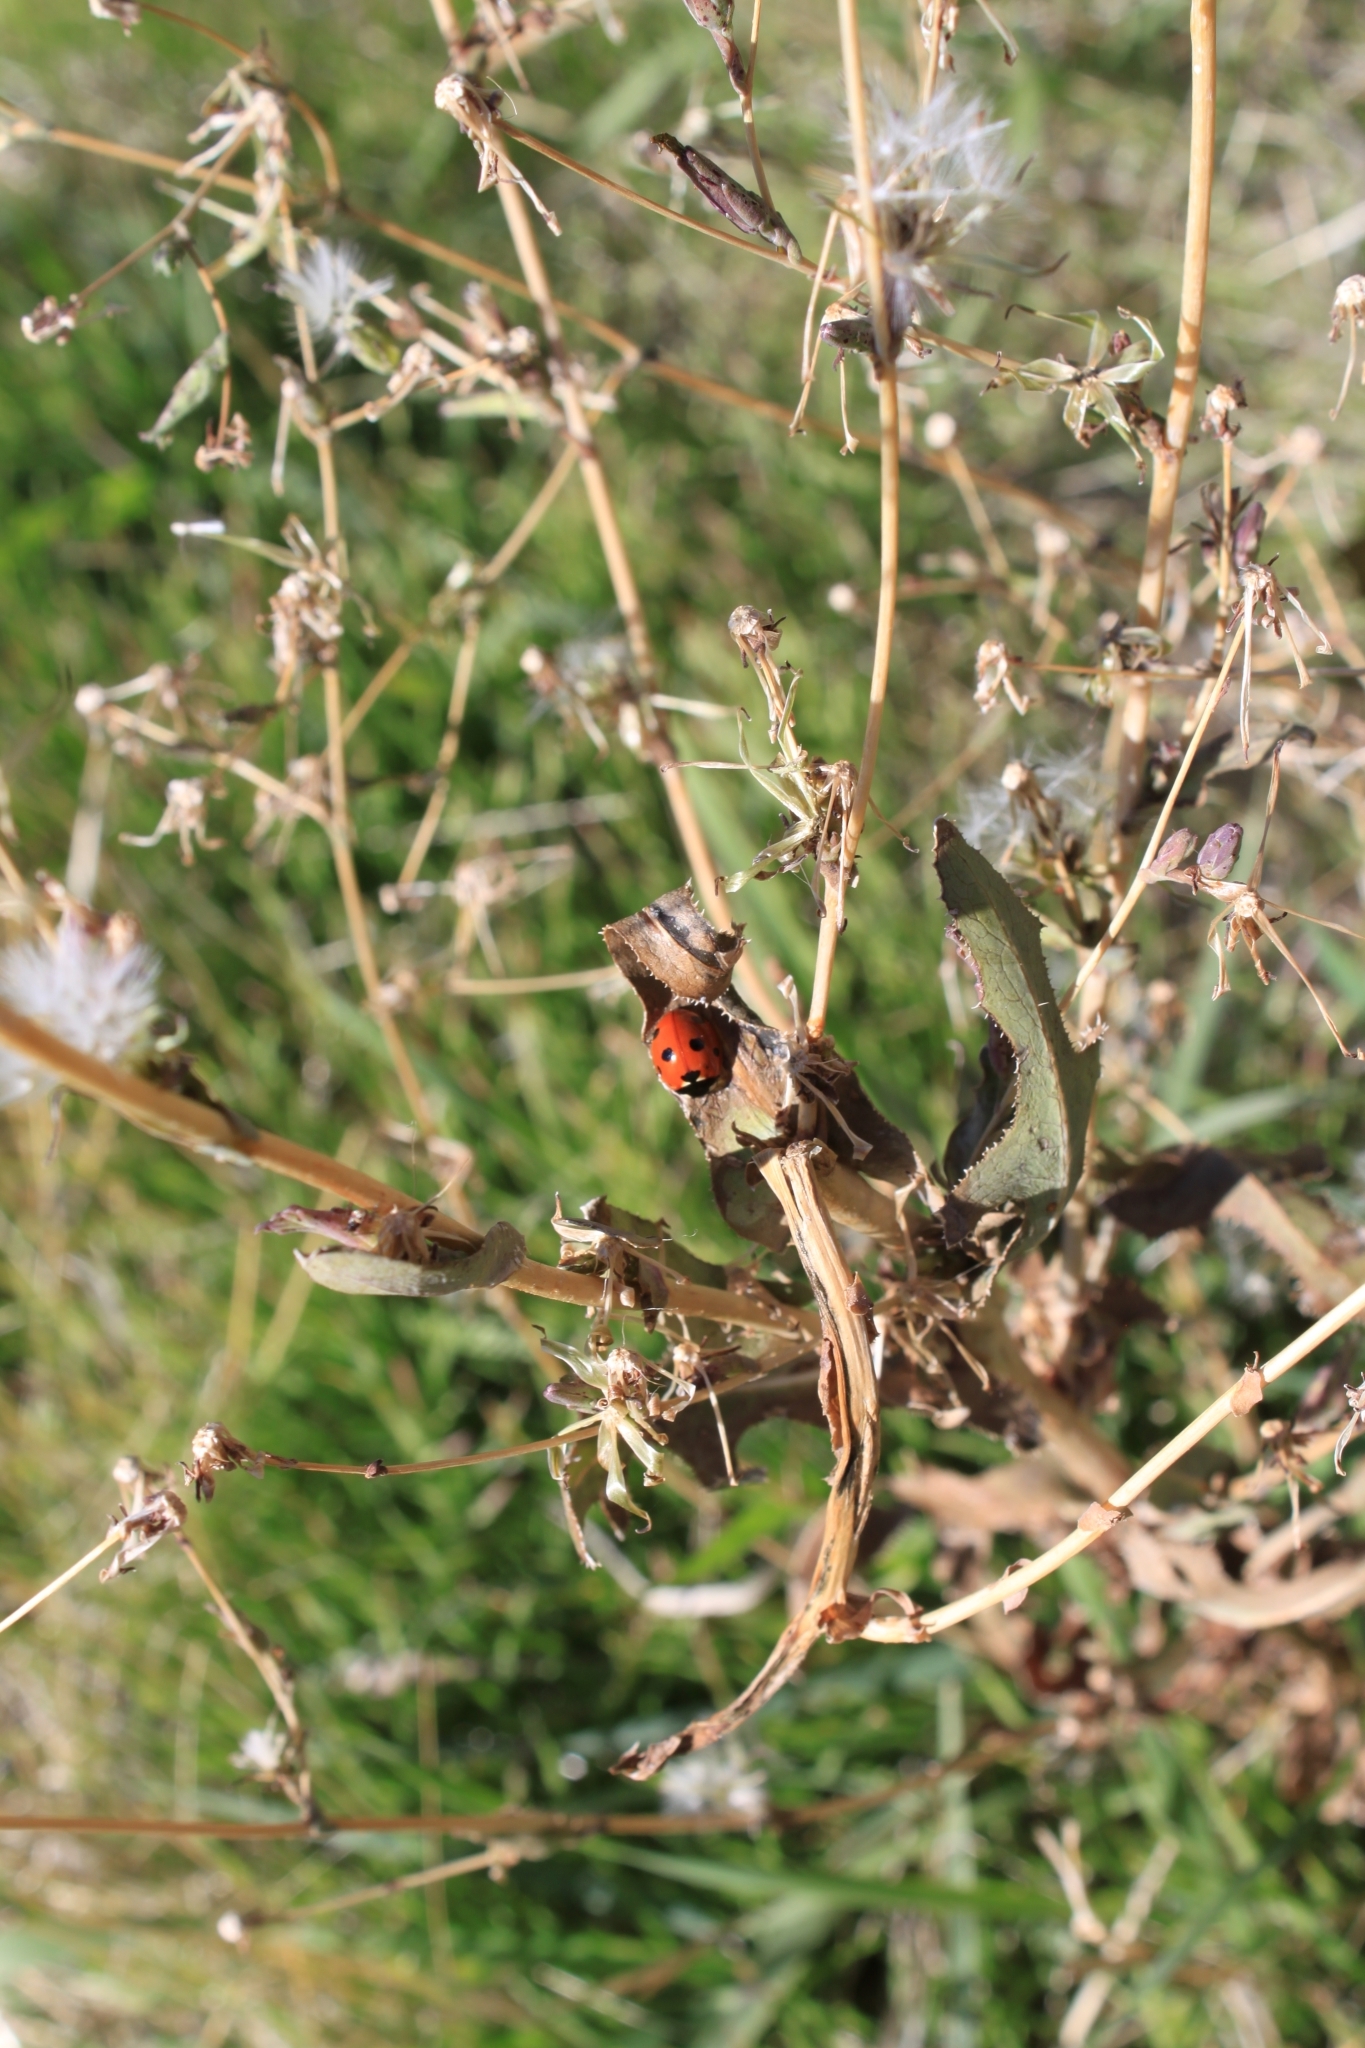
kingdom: Animalia
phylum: Arthropoda
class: Insecta
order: Coleoptera
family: Coccinellidae
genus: Coccinella
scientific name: Coccinella septempunctata
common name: Sevenspotted lady beetle
